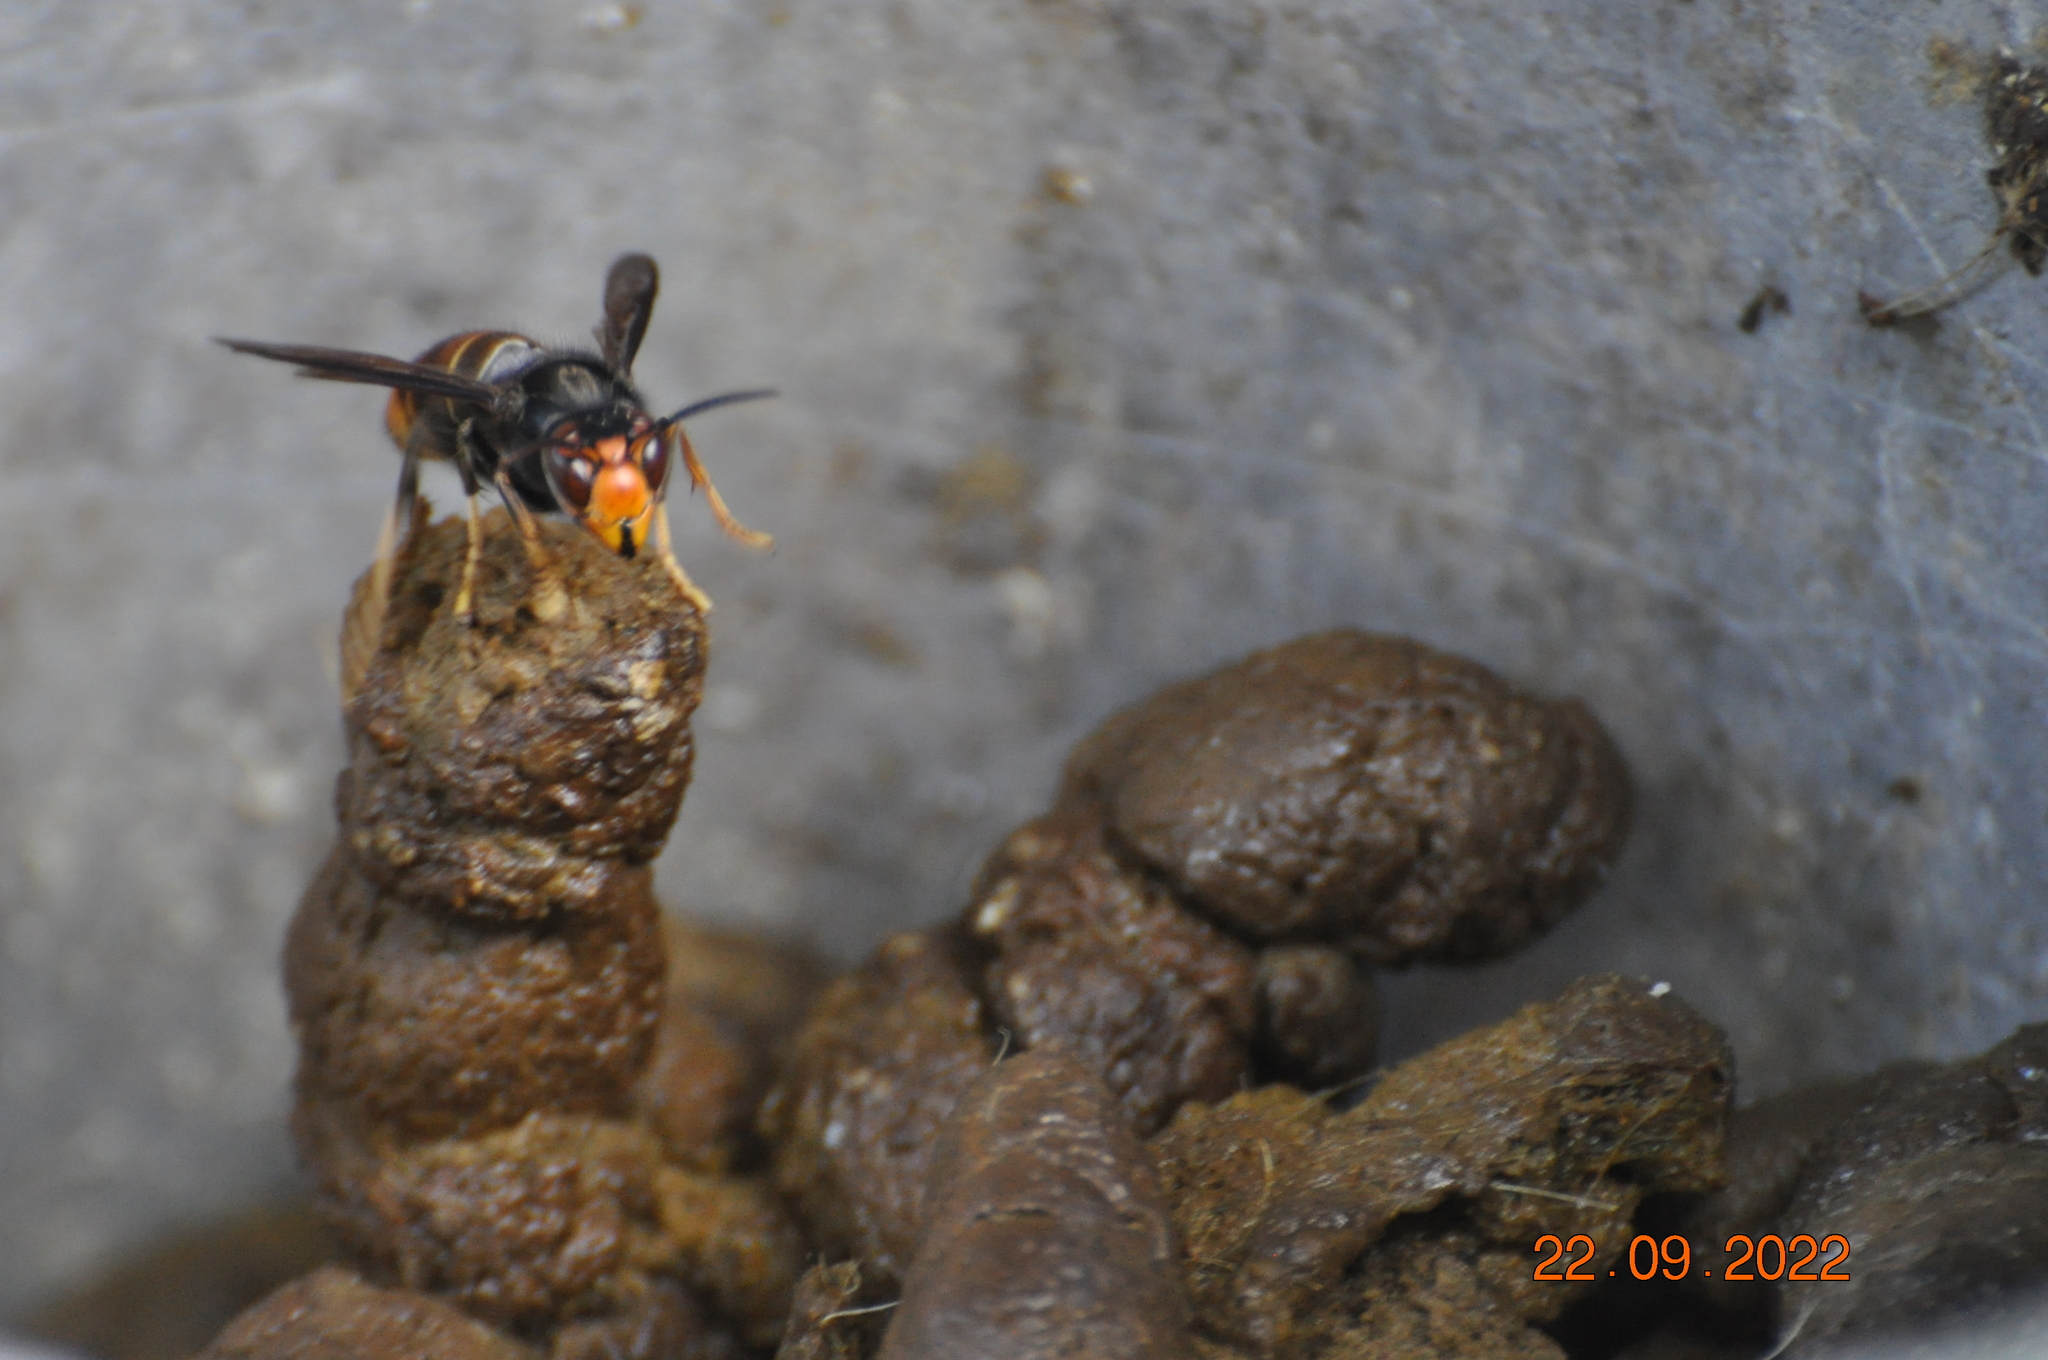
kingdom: Animalia
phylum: Arthropoda
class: Insecta
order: Hymenoptera
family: Vespidae
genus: Vespa
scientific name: Vespa velutina
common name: Asian hornet
